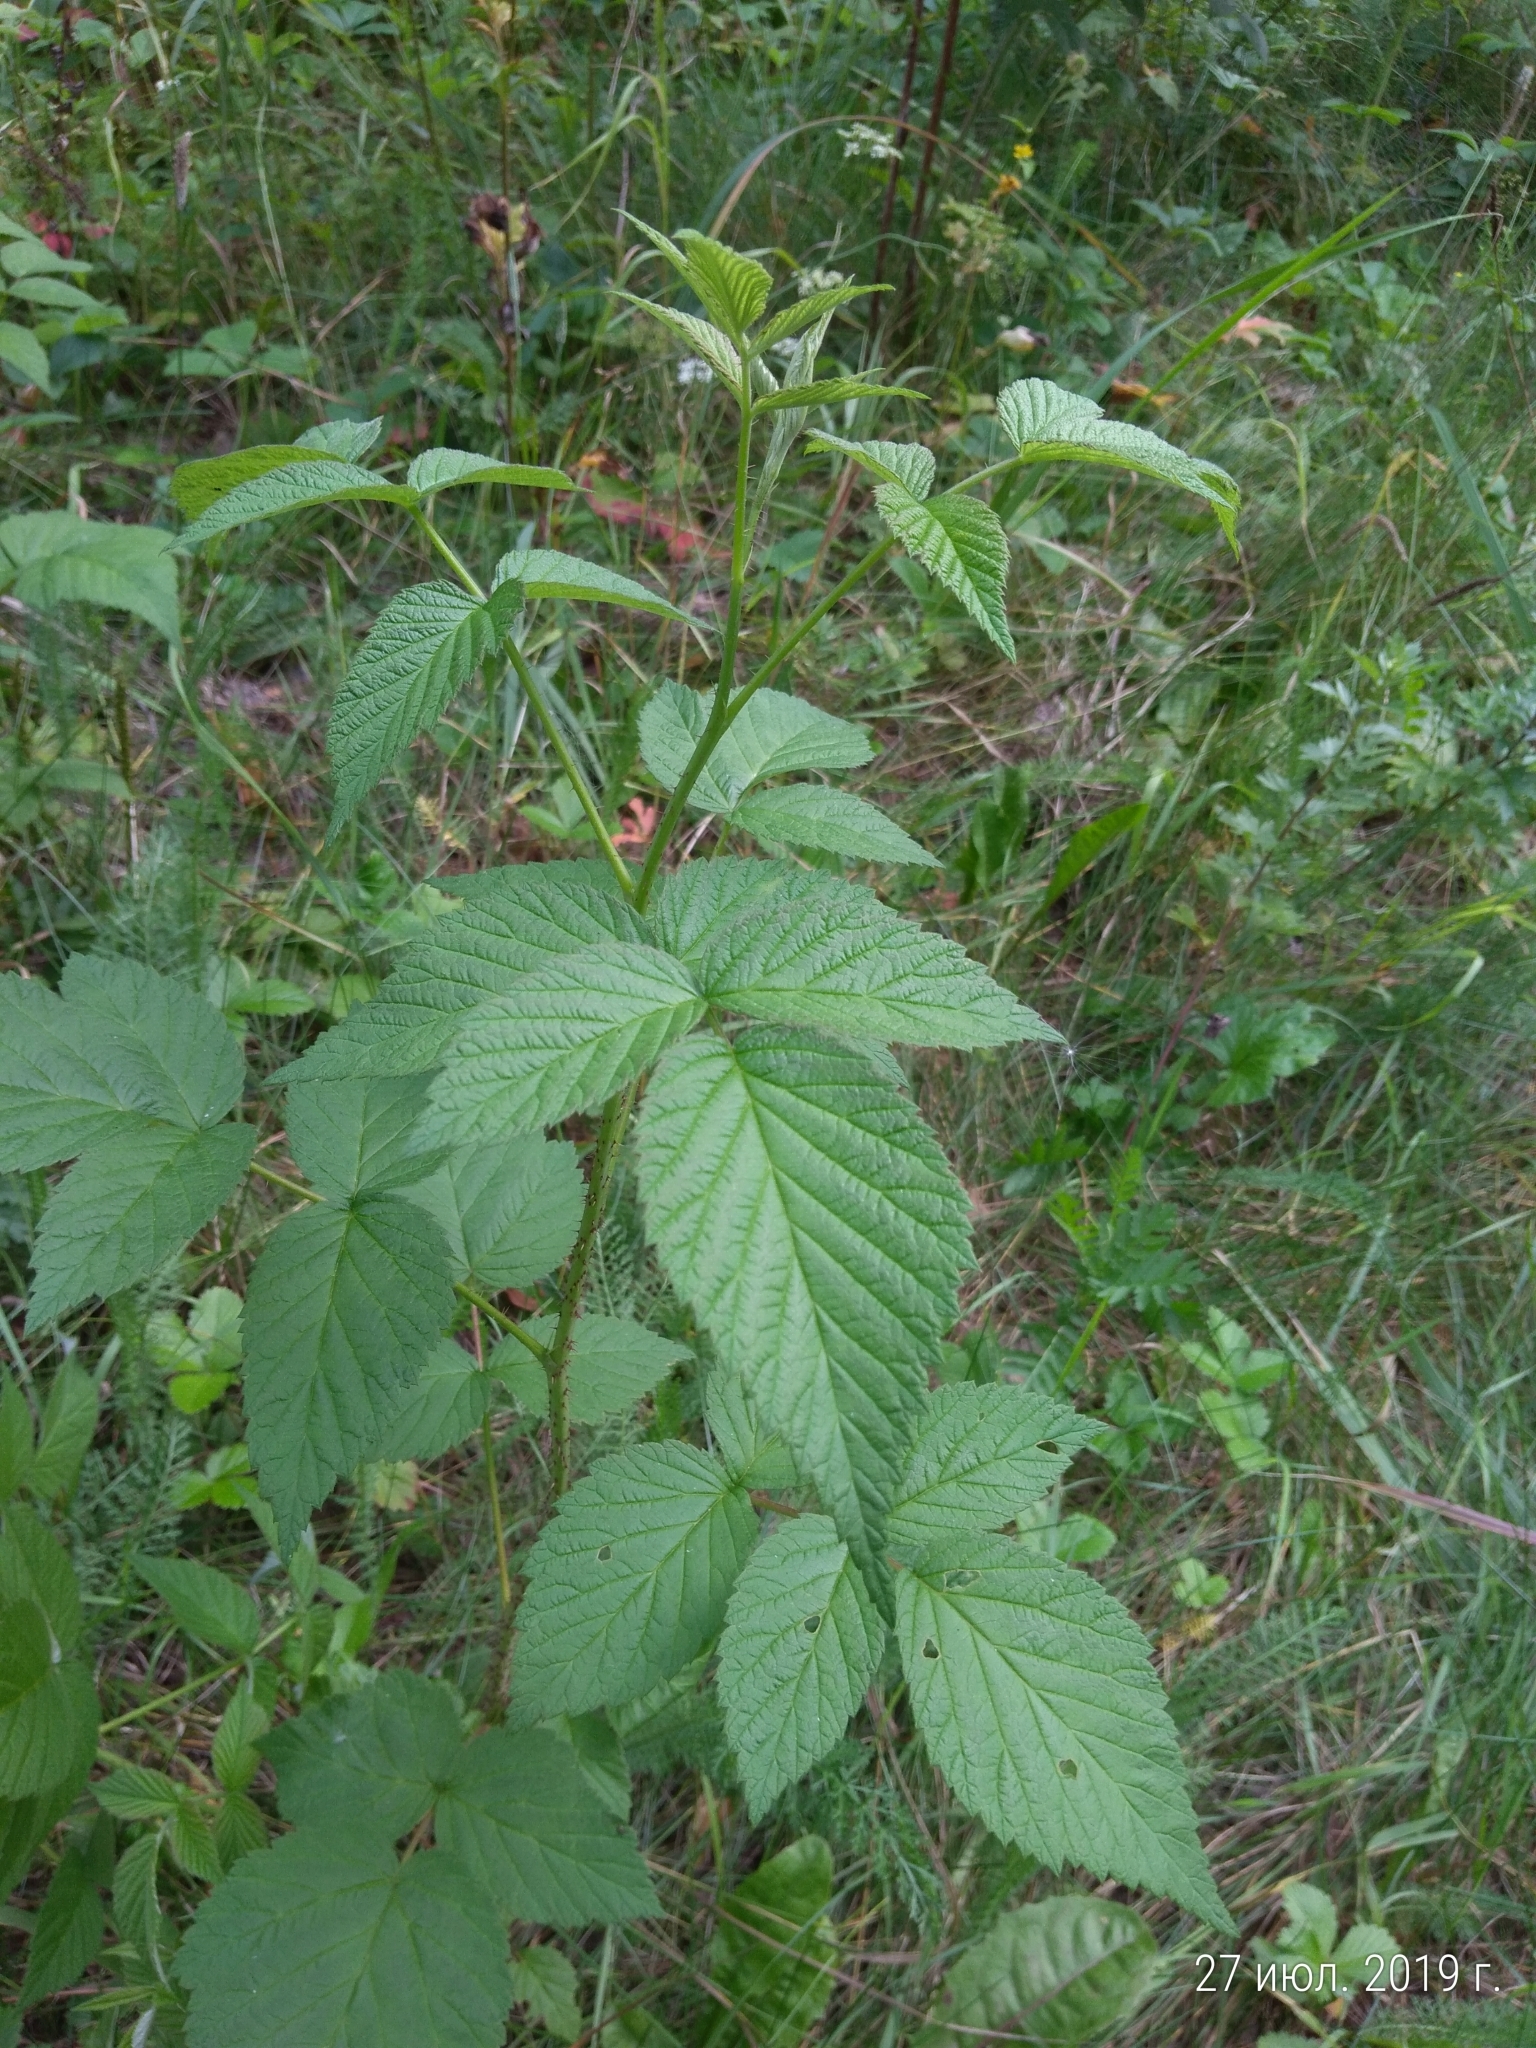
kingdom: Plantae
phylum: Tracheophyta
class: Magnoliopsida
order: Rosales
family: Rosaceae
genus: Rubus
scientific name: Rubus idaeus
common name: Raspberry
